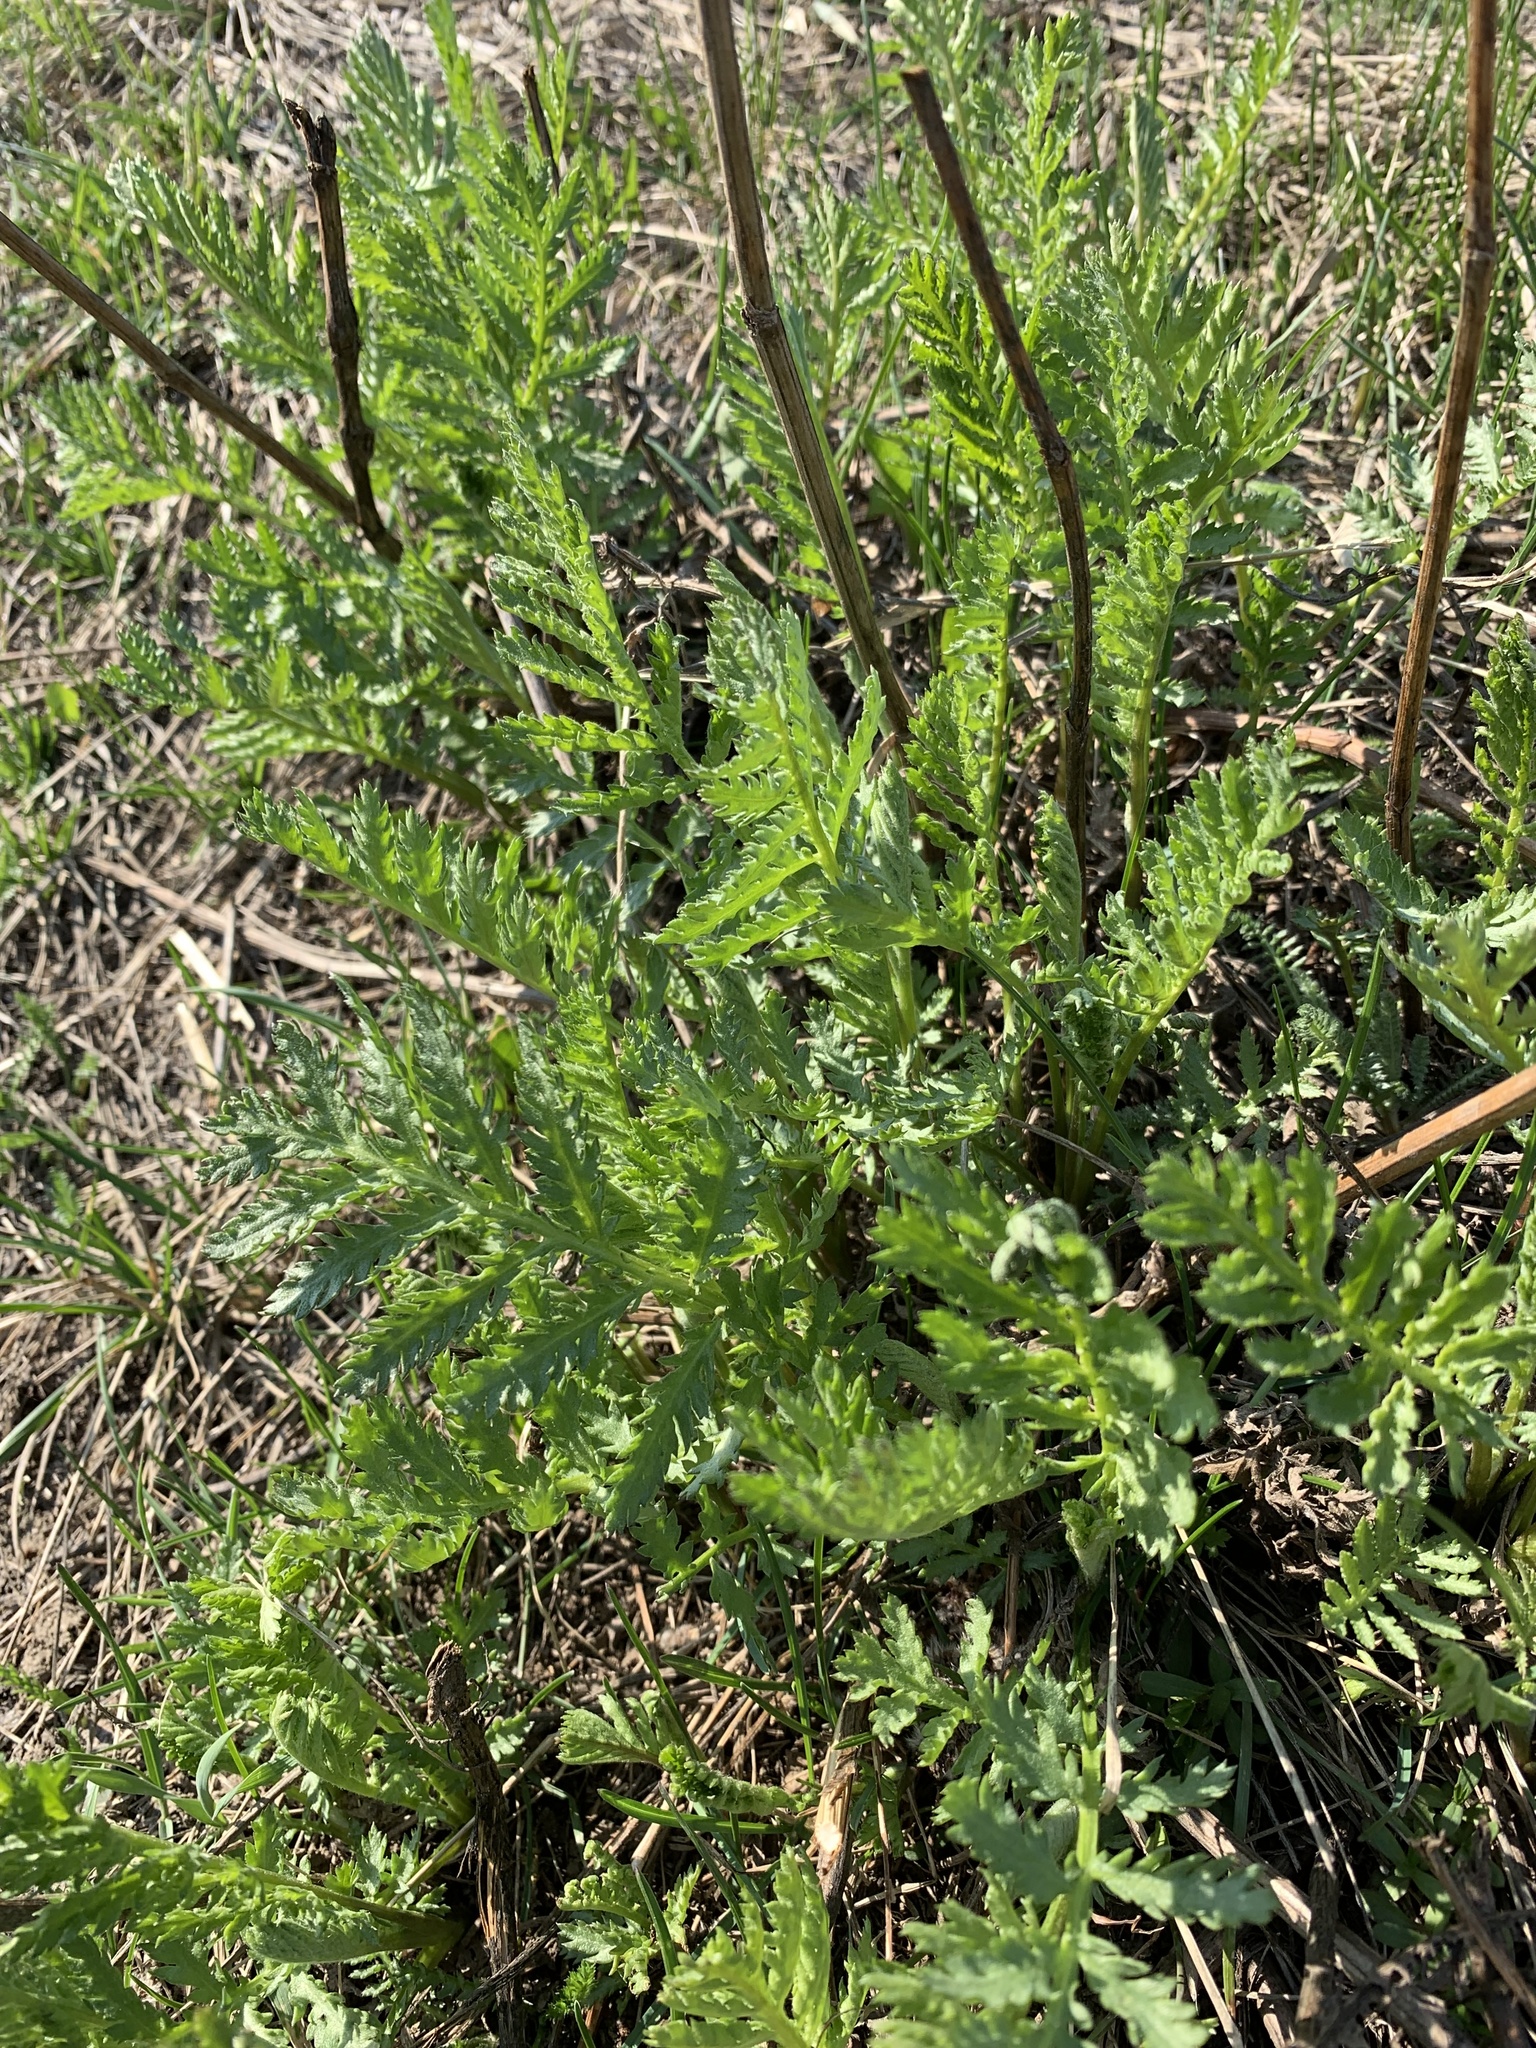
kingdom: Plantae
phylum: Tracheophyta
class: Magnoliopsida
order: Asterales
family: Asteraceae
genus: Tanacetum
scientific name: Tanacetum vulgare
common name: Common tansy
